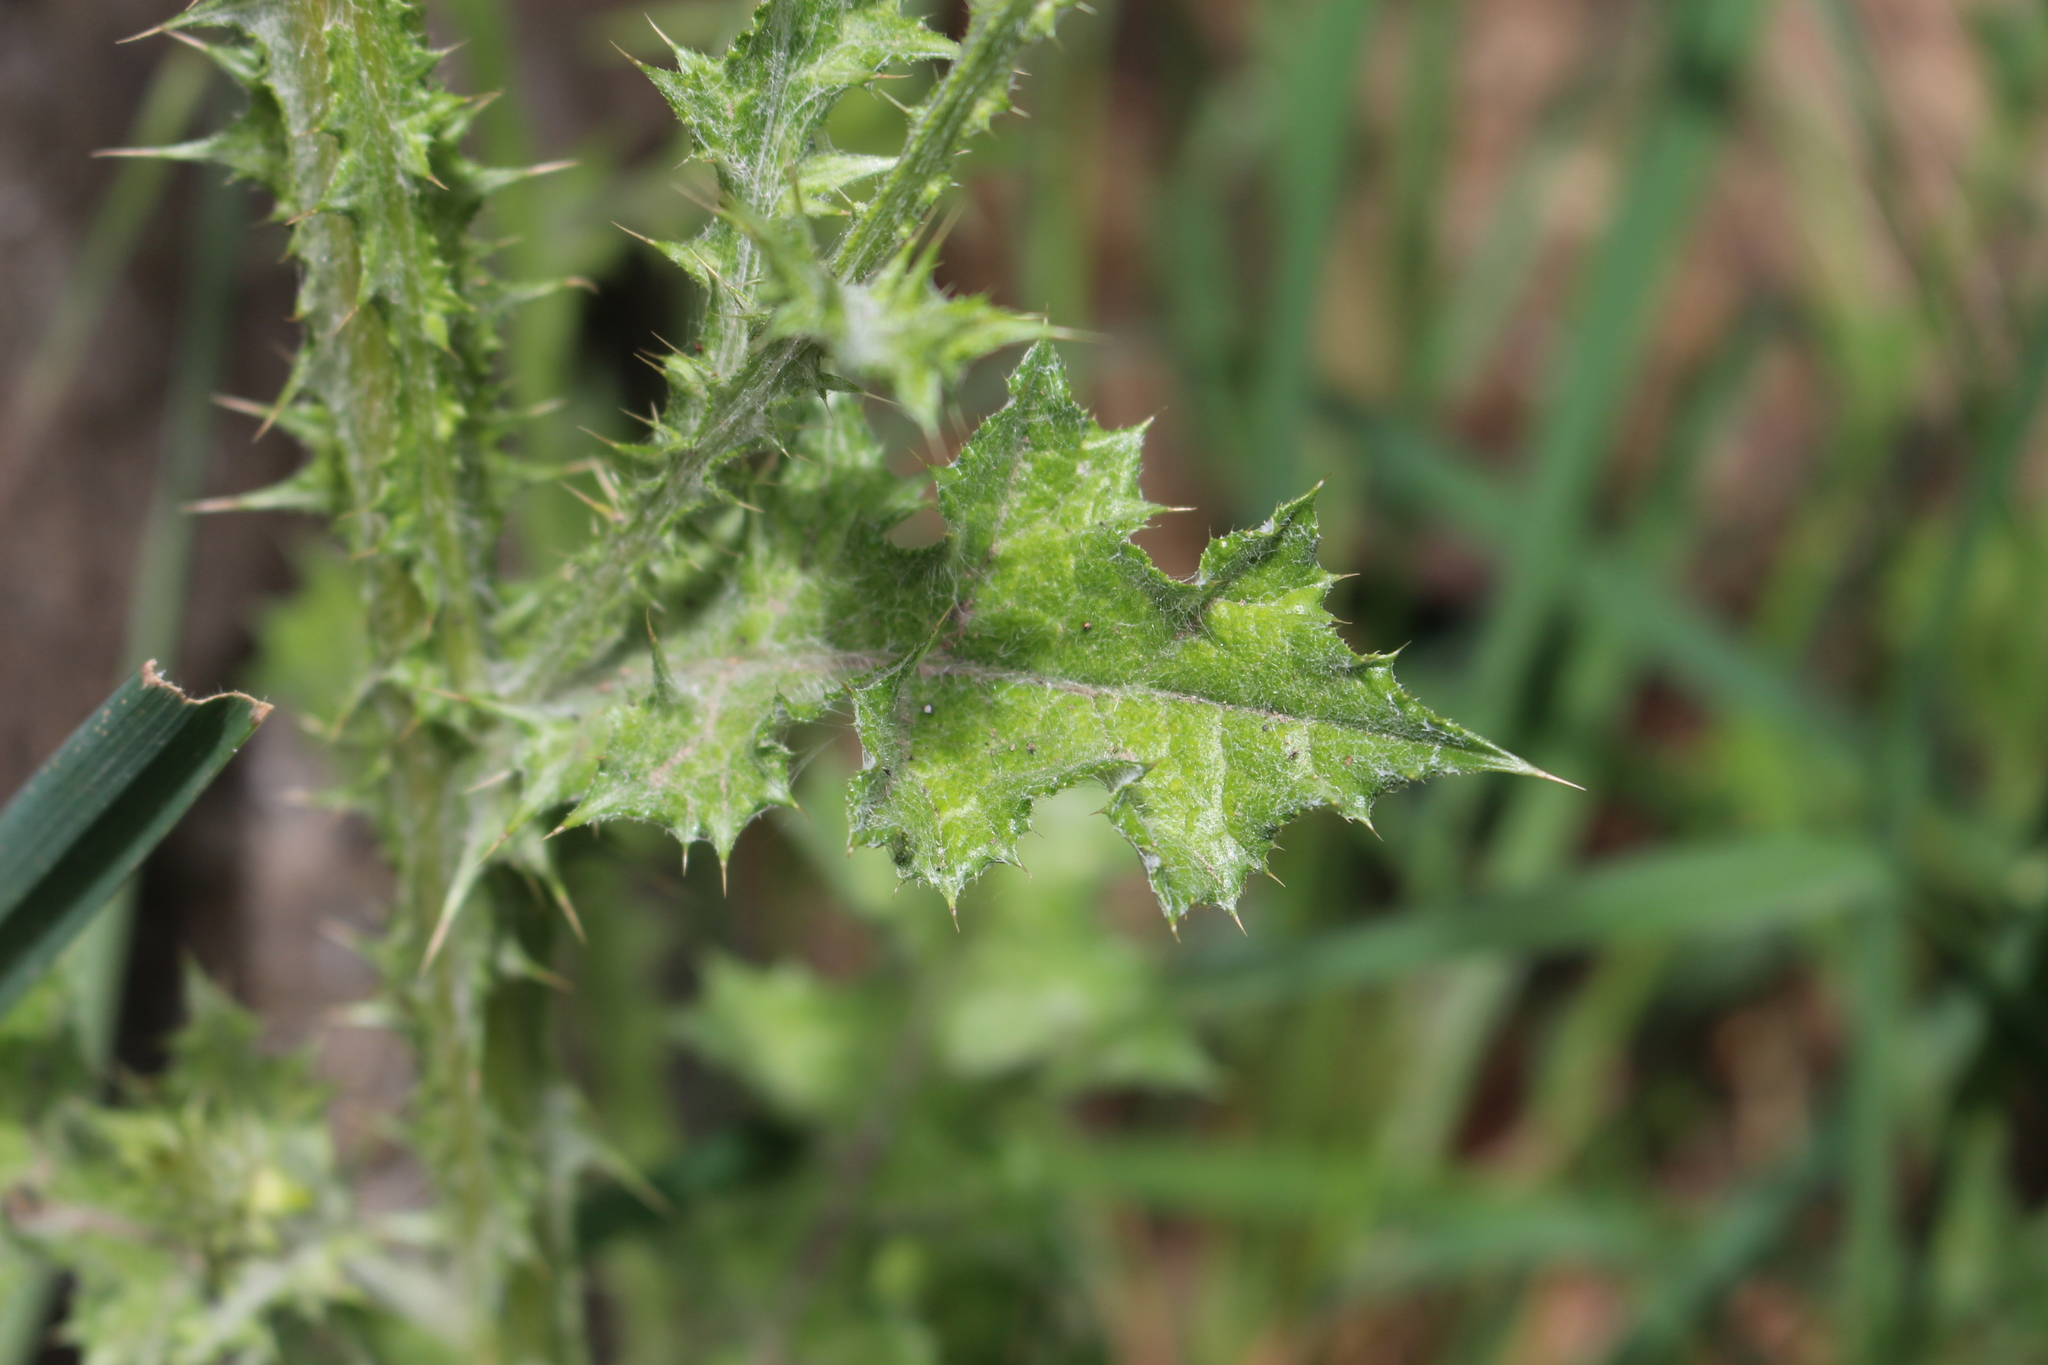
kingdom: Plantae
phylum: Tracheophyta
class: Magnoliopsida
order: Asterales
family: Asteraceae
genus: Carduus
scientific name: Carduus pycnocephalus
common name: Plymouth thistle
